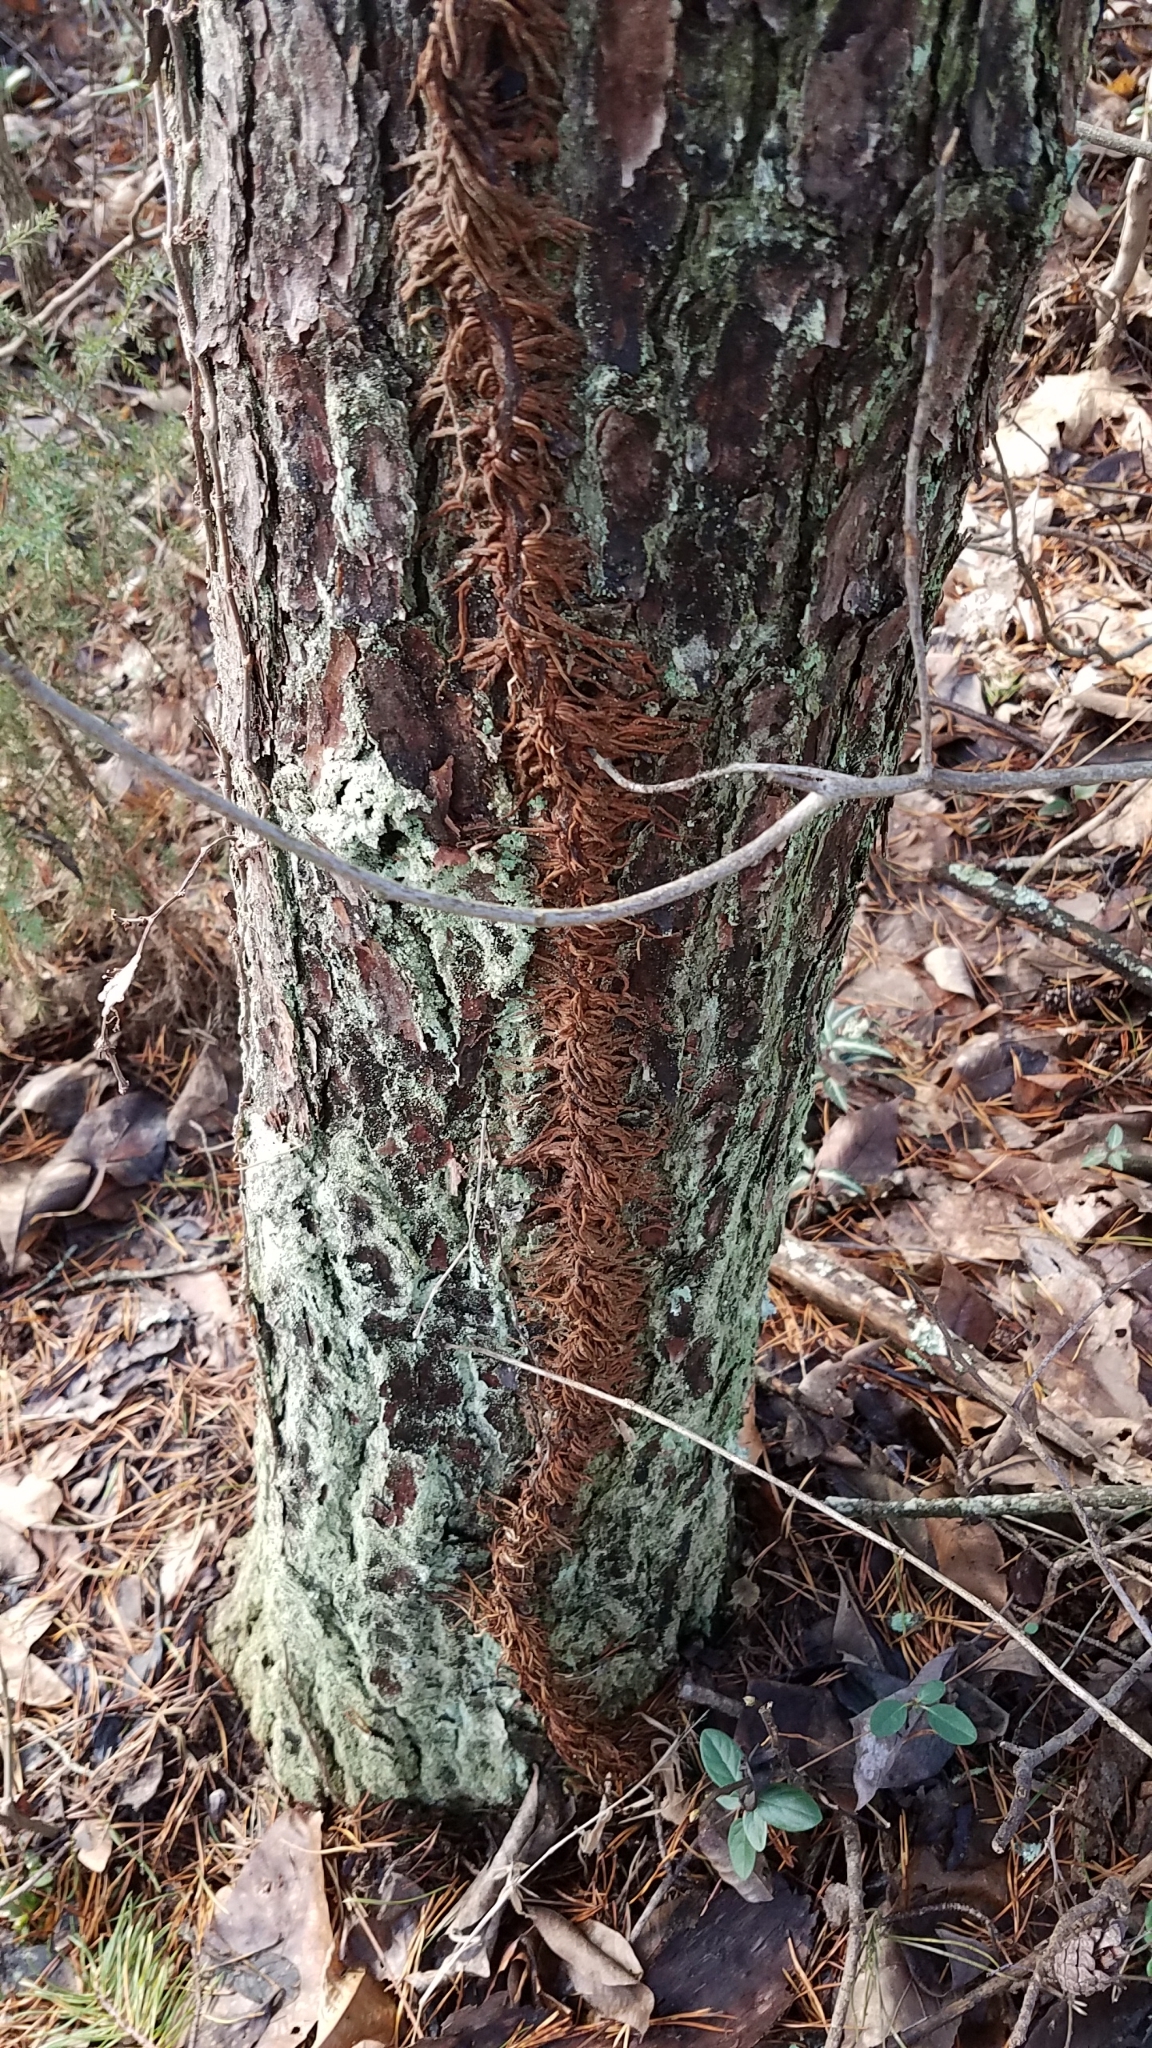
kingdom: Plantae
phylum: Tracheophyta
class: Magnoliopsida
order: Sapindales
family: Anacardiaceae
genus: Toxicodendron
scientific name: Toxicodendron radicans
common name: Poison ivy
